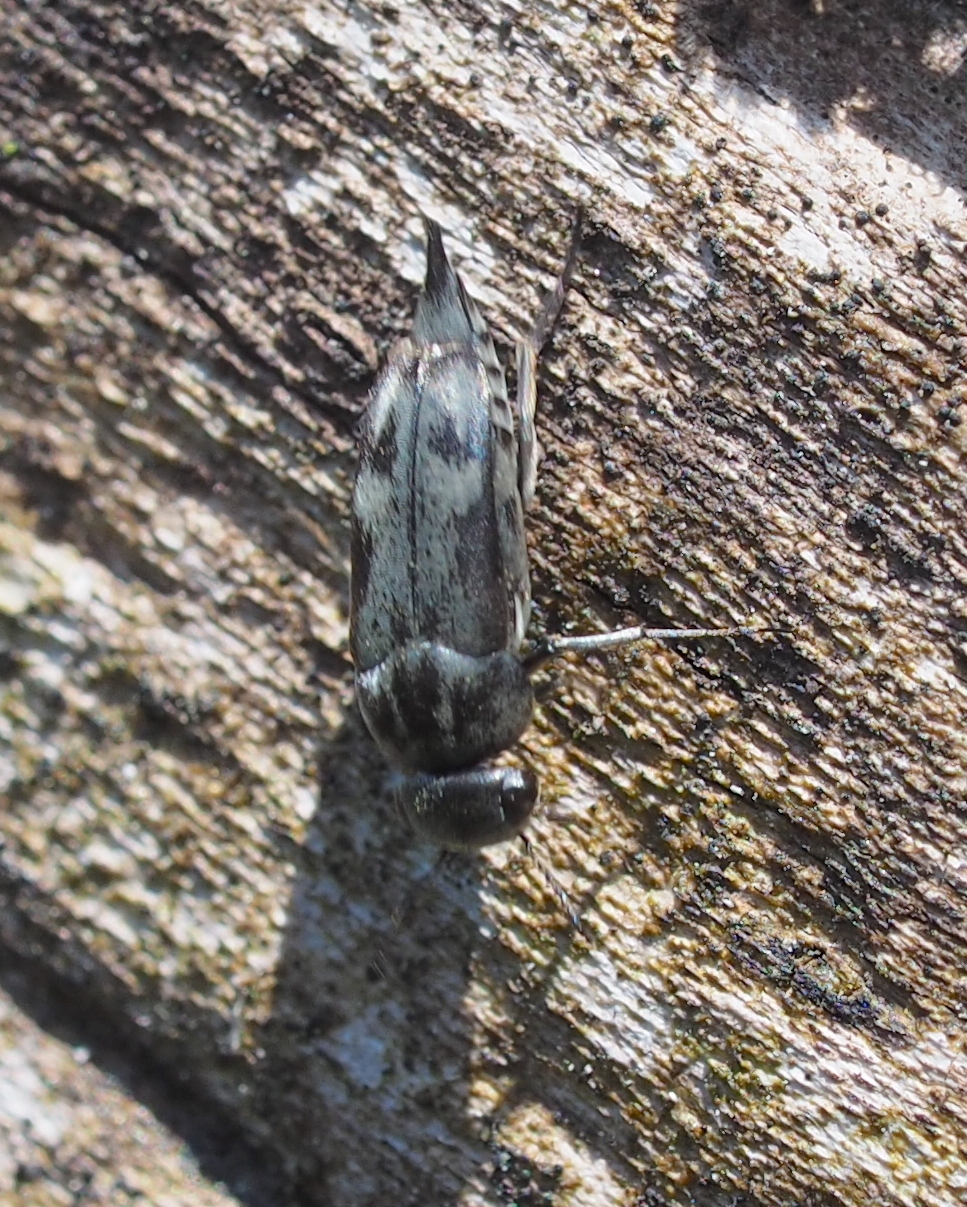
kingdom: Animalia
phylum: Arthropoda
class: Insecta
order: Coleoptera
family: Mordellidae
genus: Tomoxia
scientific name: Tomoxia bucephala
